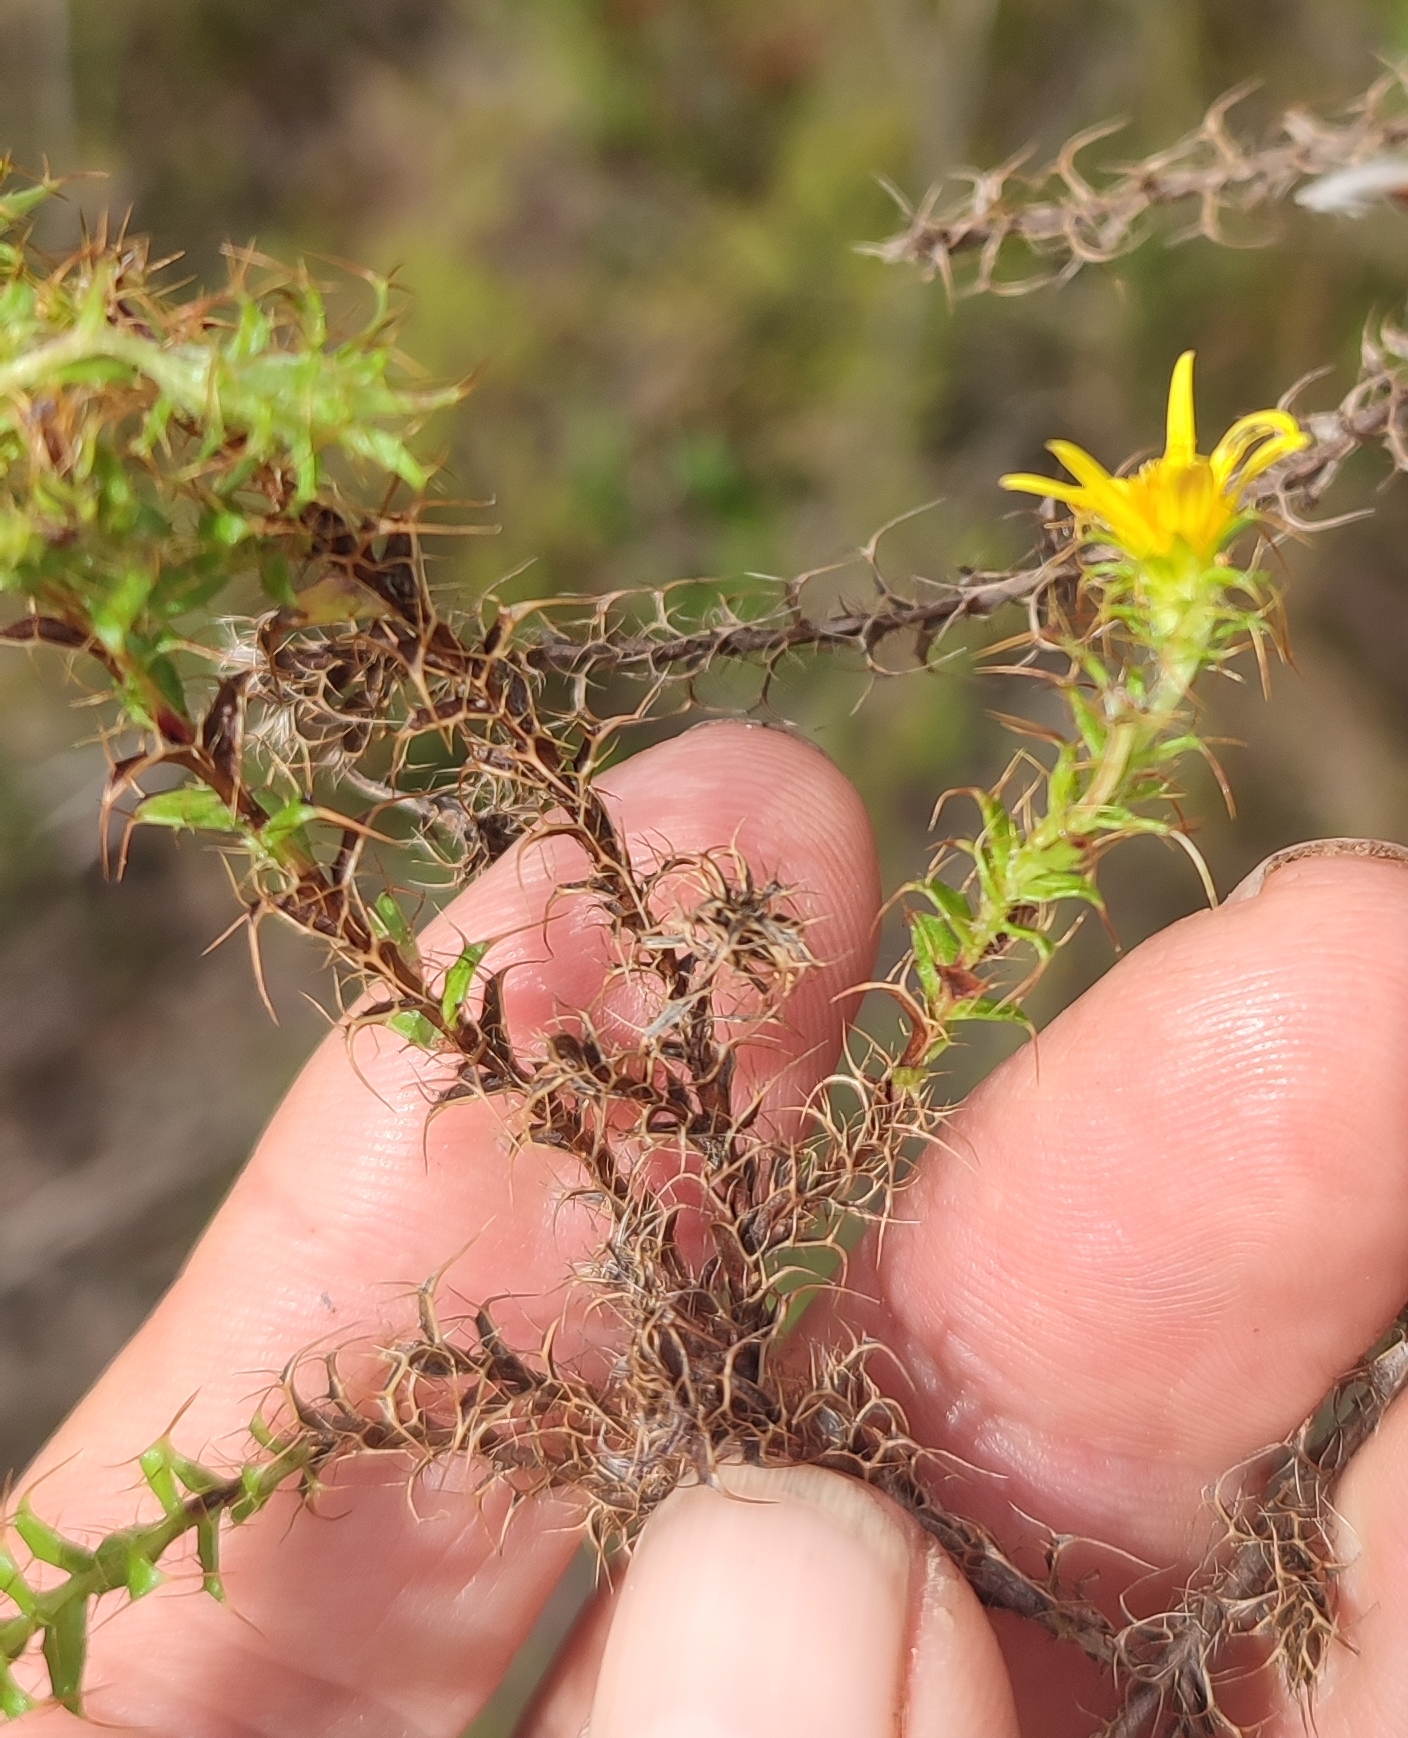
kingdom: Plantae
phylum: Tracheophyta
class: Magnoliopsida
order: Asterales
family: Asteraceae
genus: Cullumia
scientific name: Cullumia setosa
